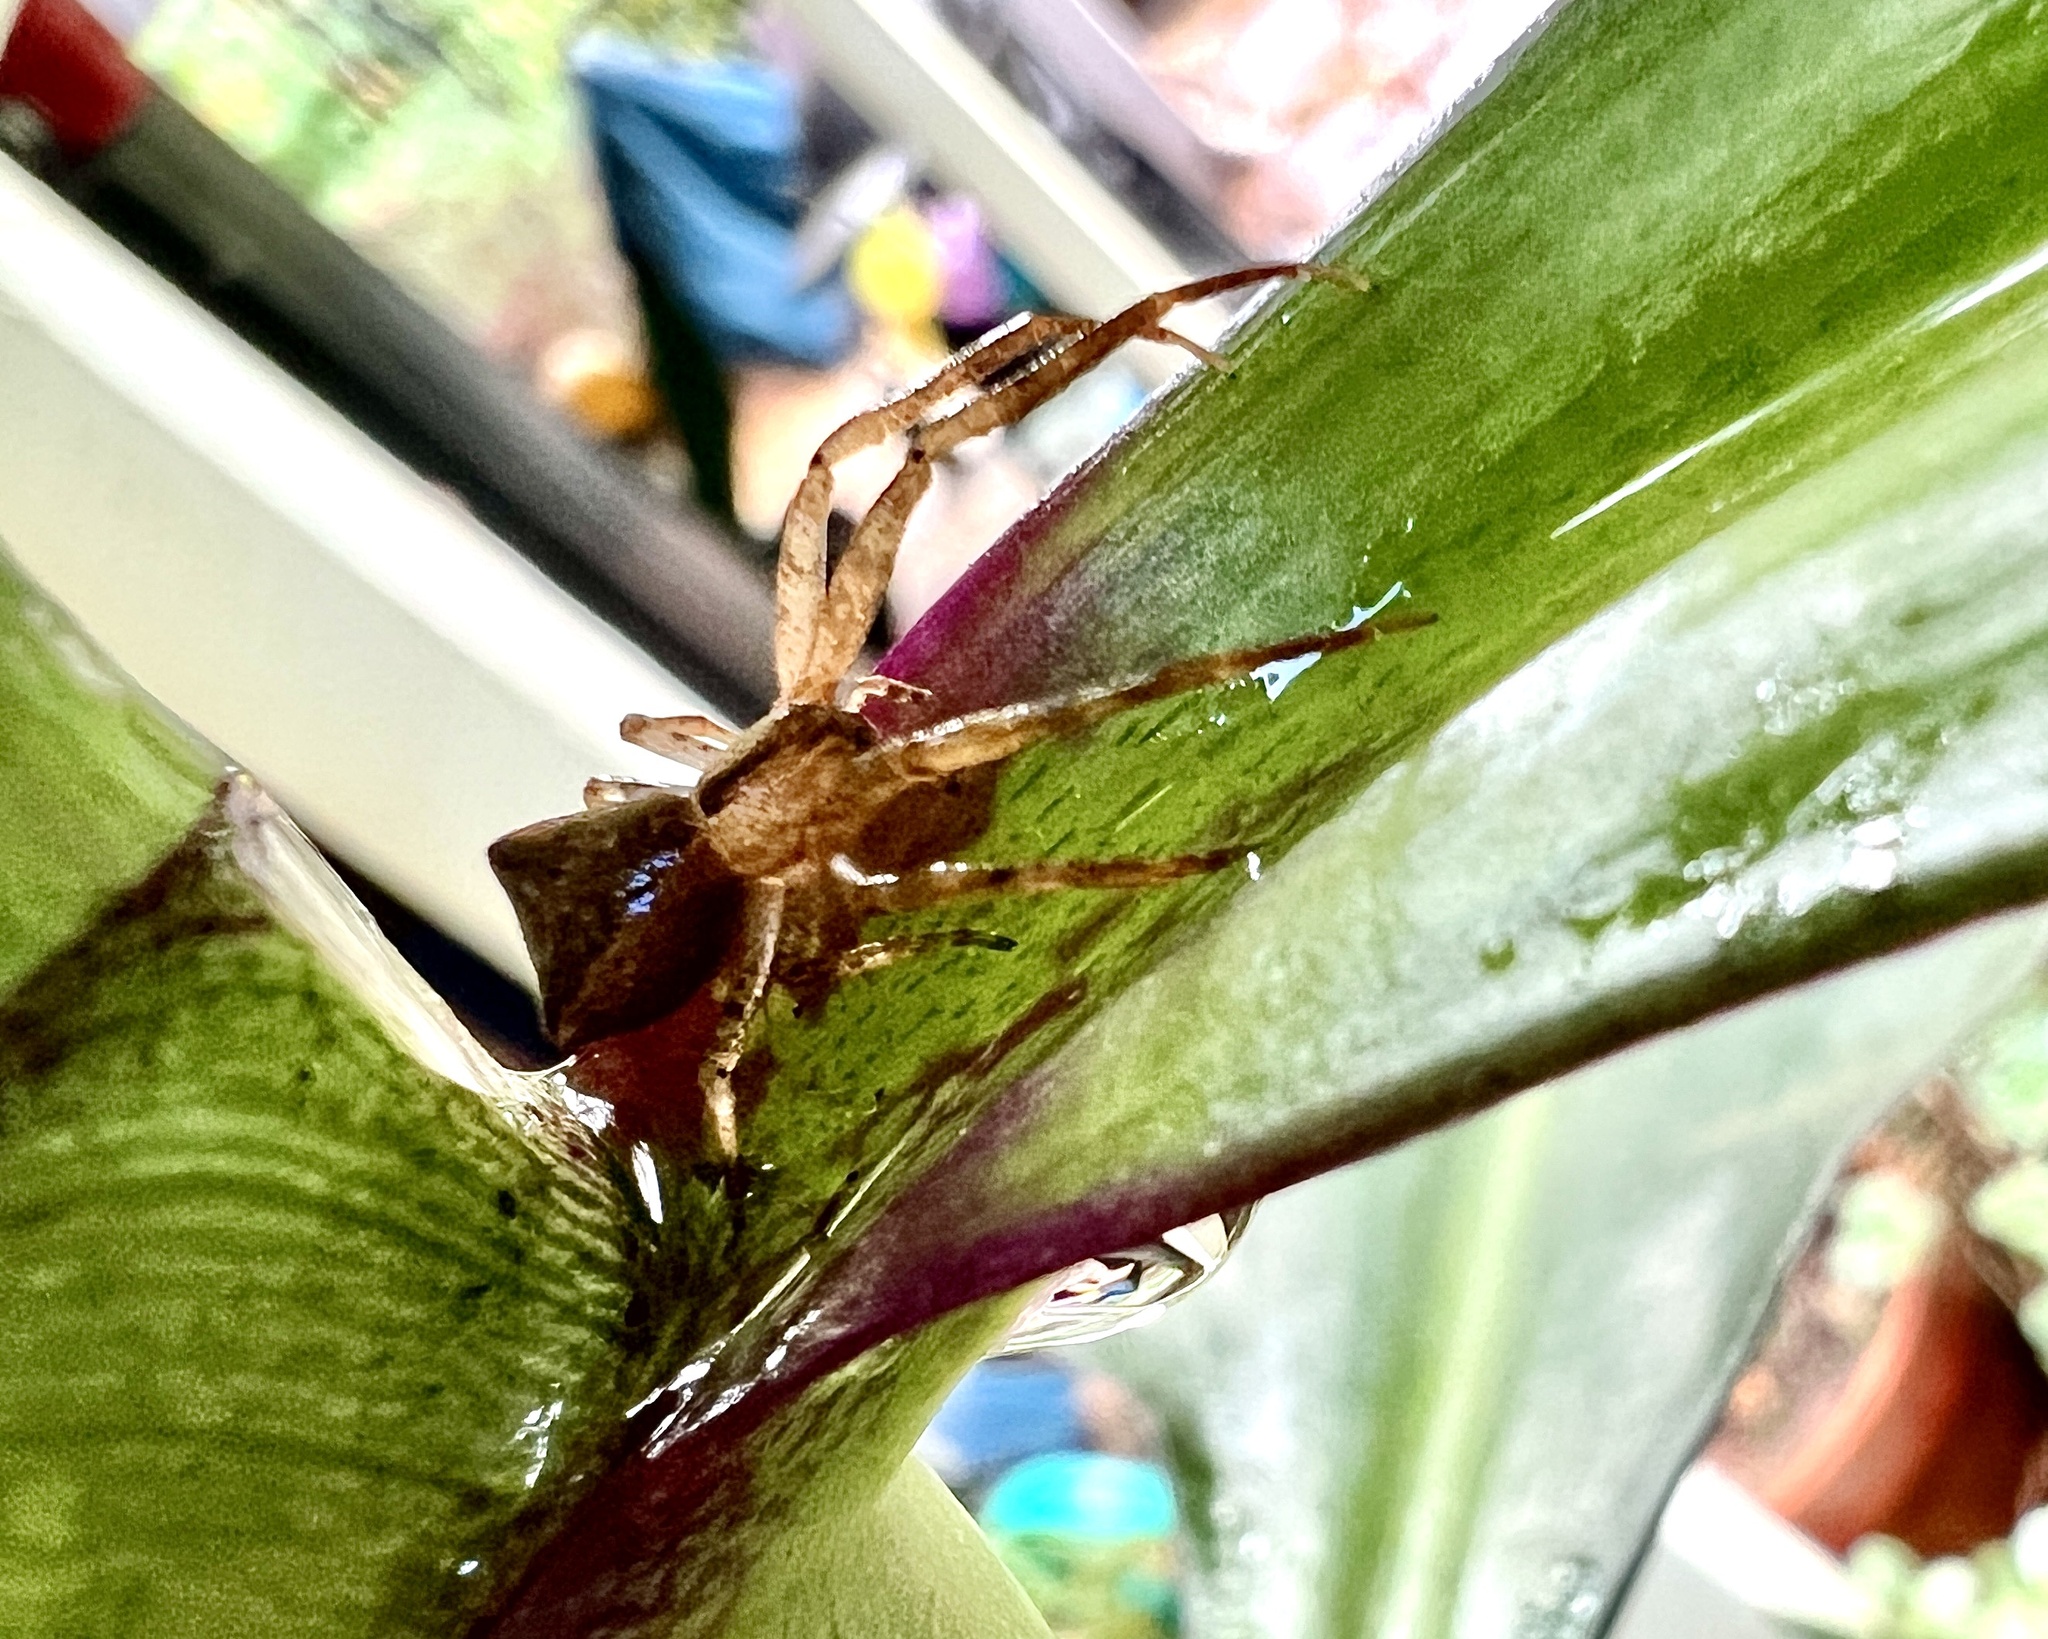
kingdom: Animalia
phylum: Arthropoda
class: Arachnida
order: Araneae
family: Thomisidae
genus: Sidymella
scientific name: Sidymella trapezia
